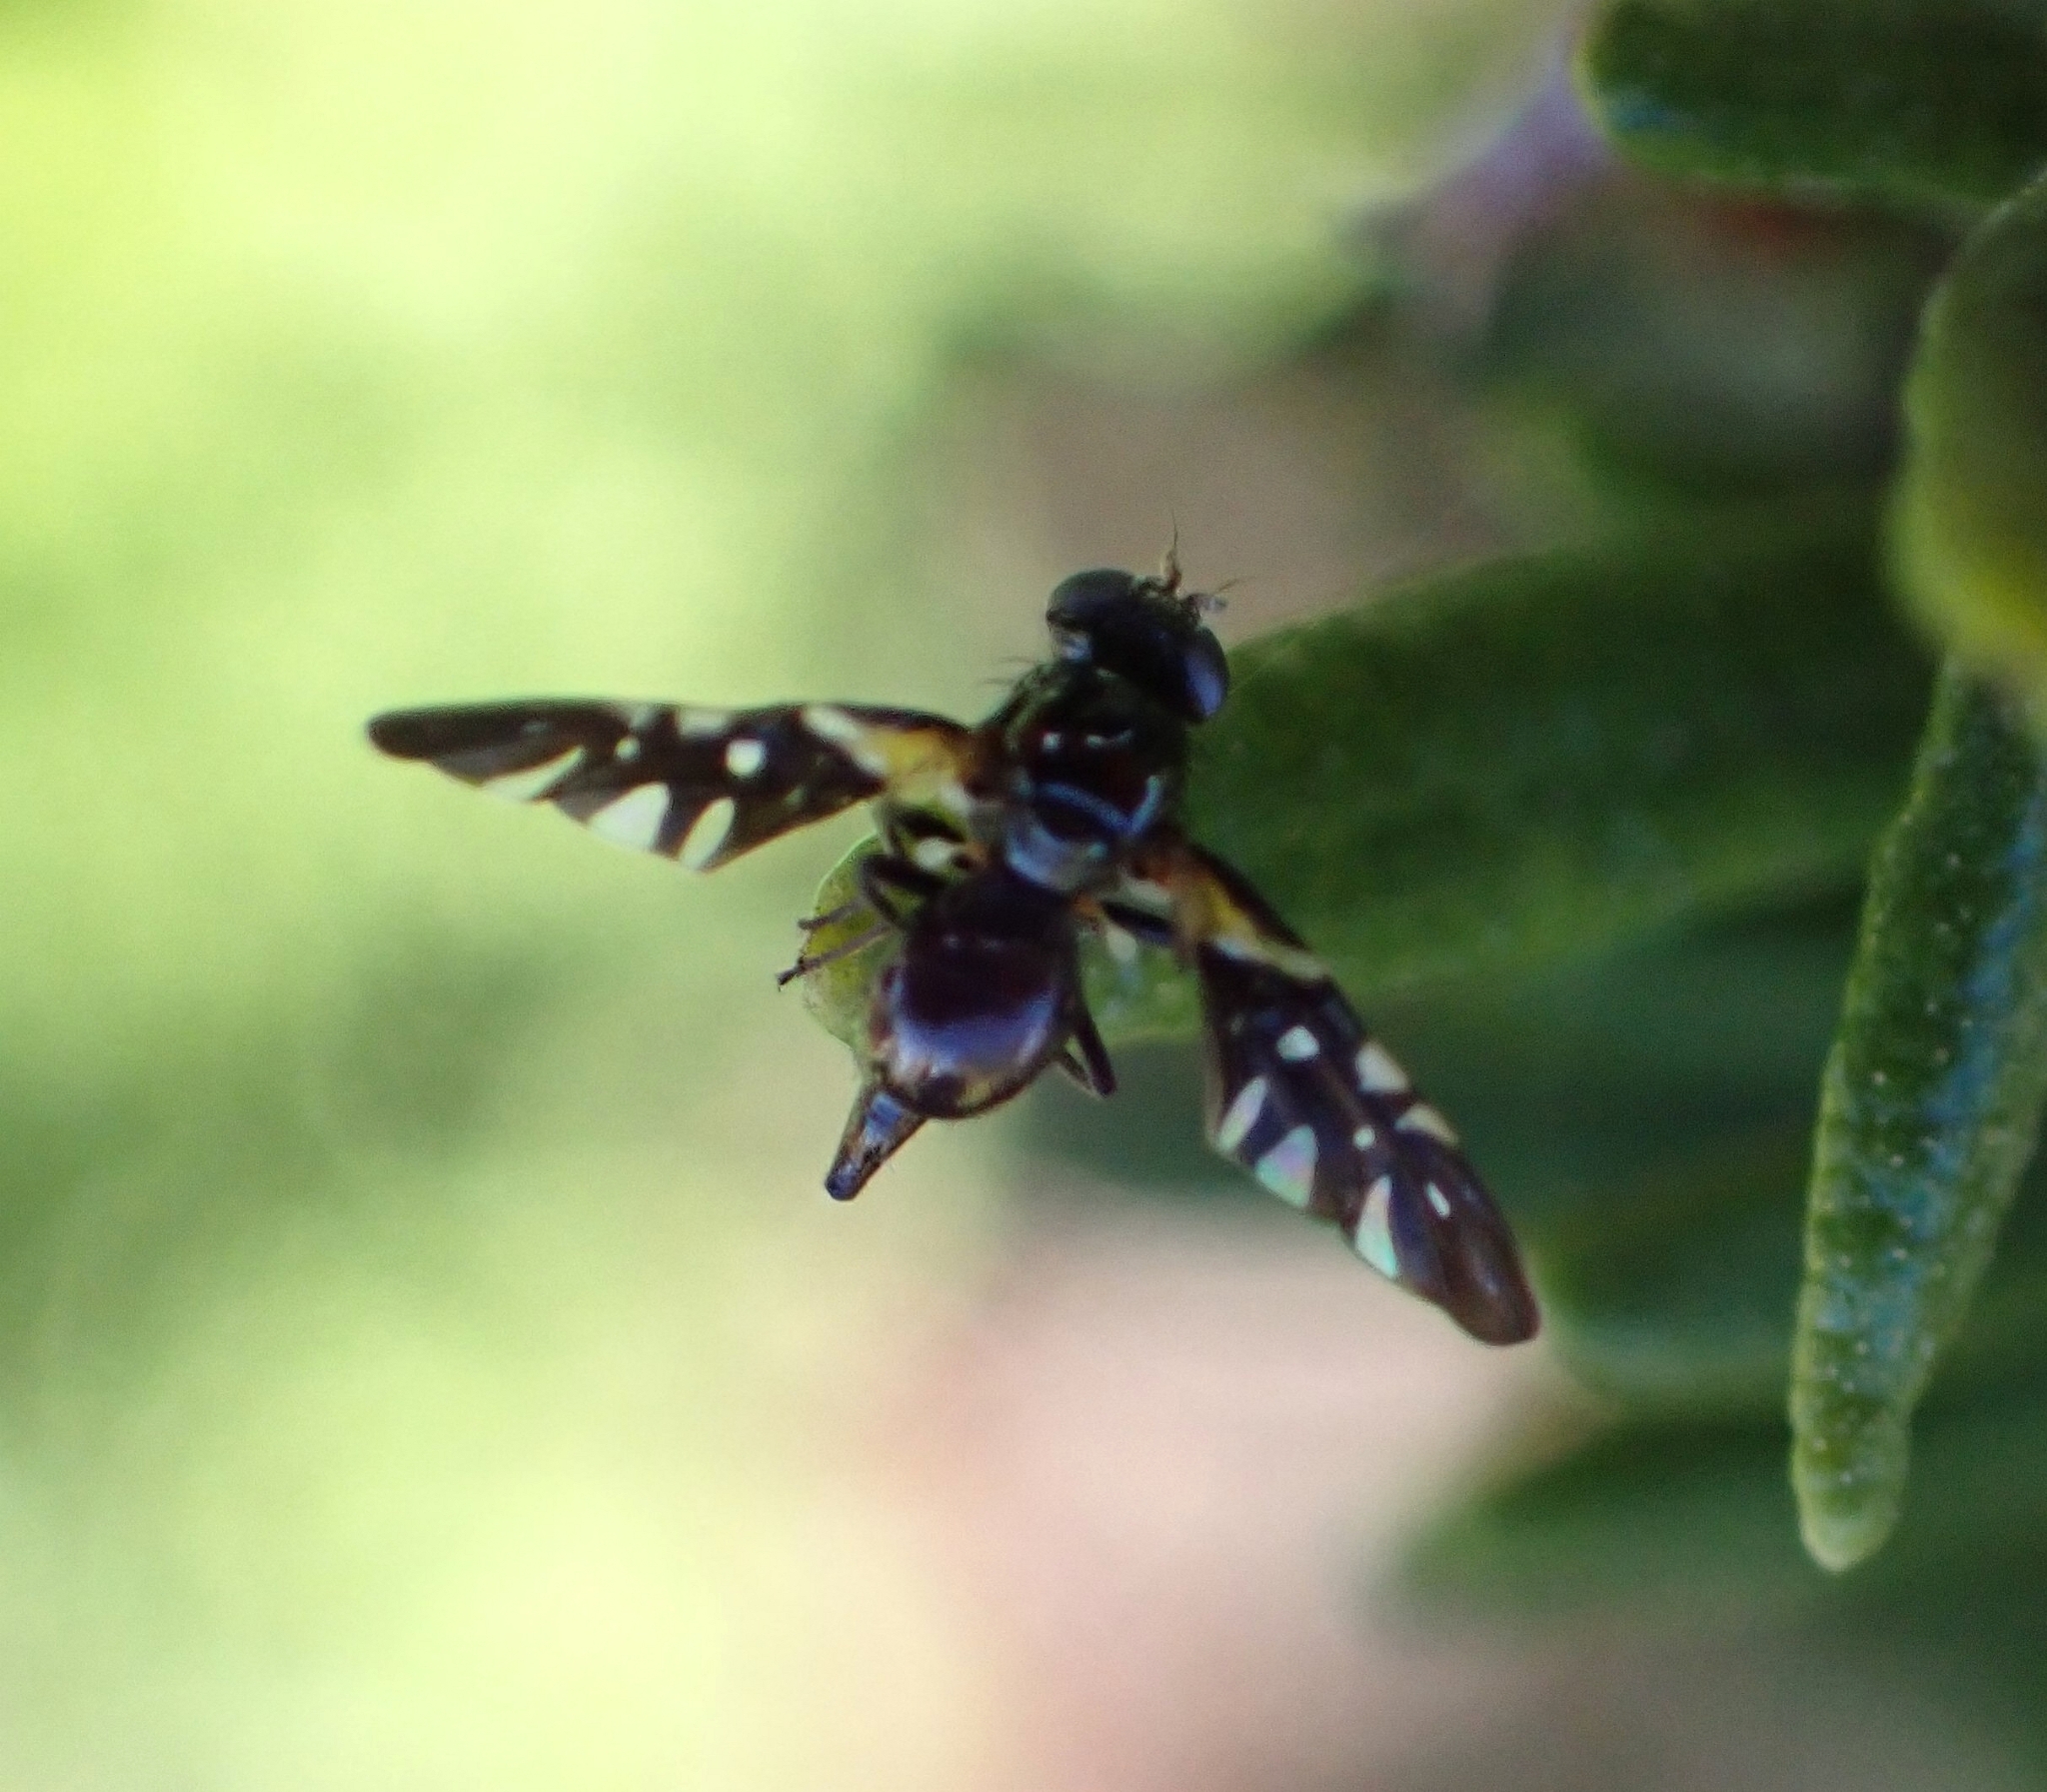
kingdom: Animalia
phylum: Arthropoda
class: Insecta
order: Diptera
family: Tephritidae
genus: Oxyaciura
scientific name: Oxyaciura tibialis
